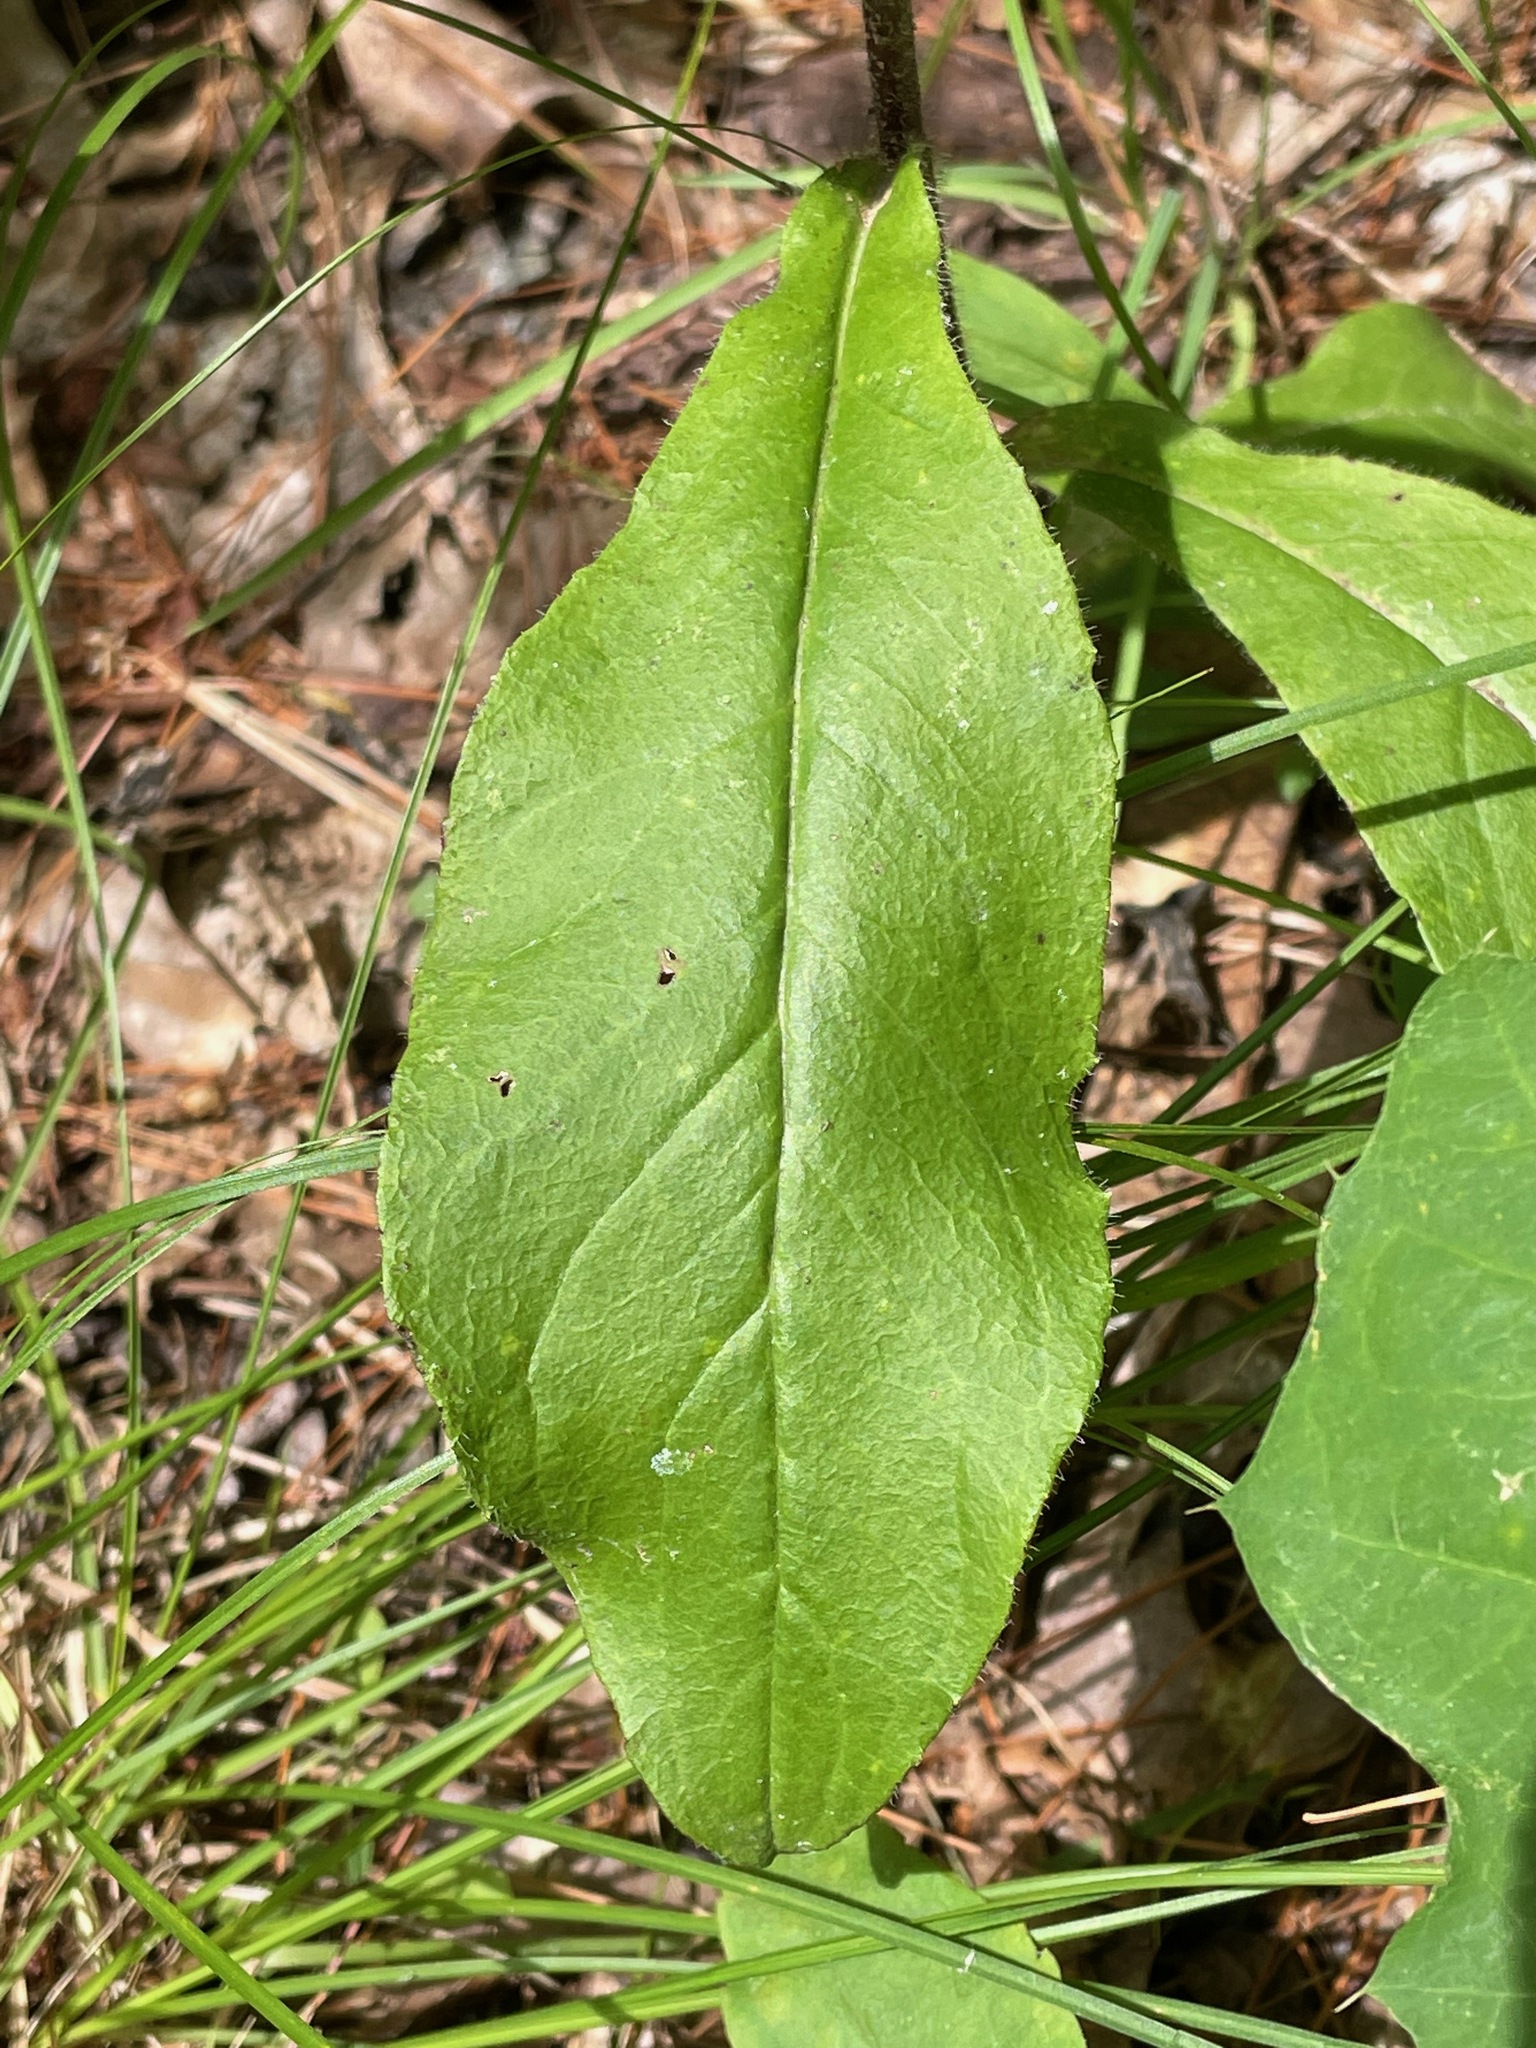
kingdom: Plantae
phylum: Tracheophyta
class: Magnoliopsida
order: Asterales
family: Asteraceae
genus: Hieracium
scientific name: Hieracium scabrum
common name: Rough hawkweed
